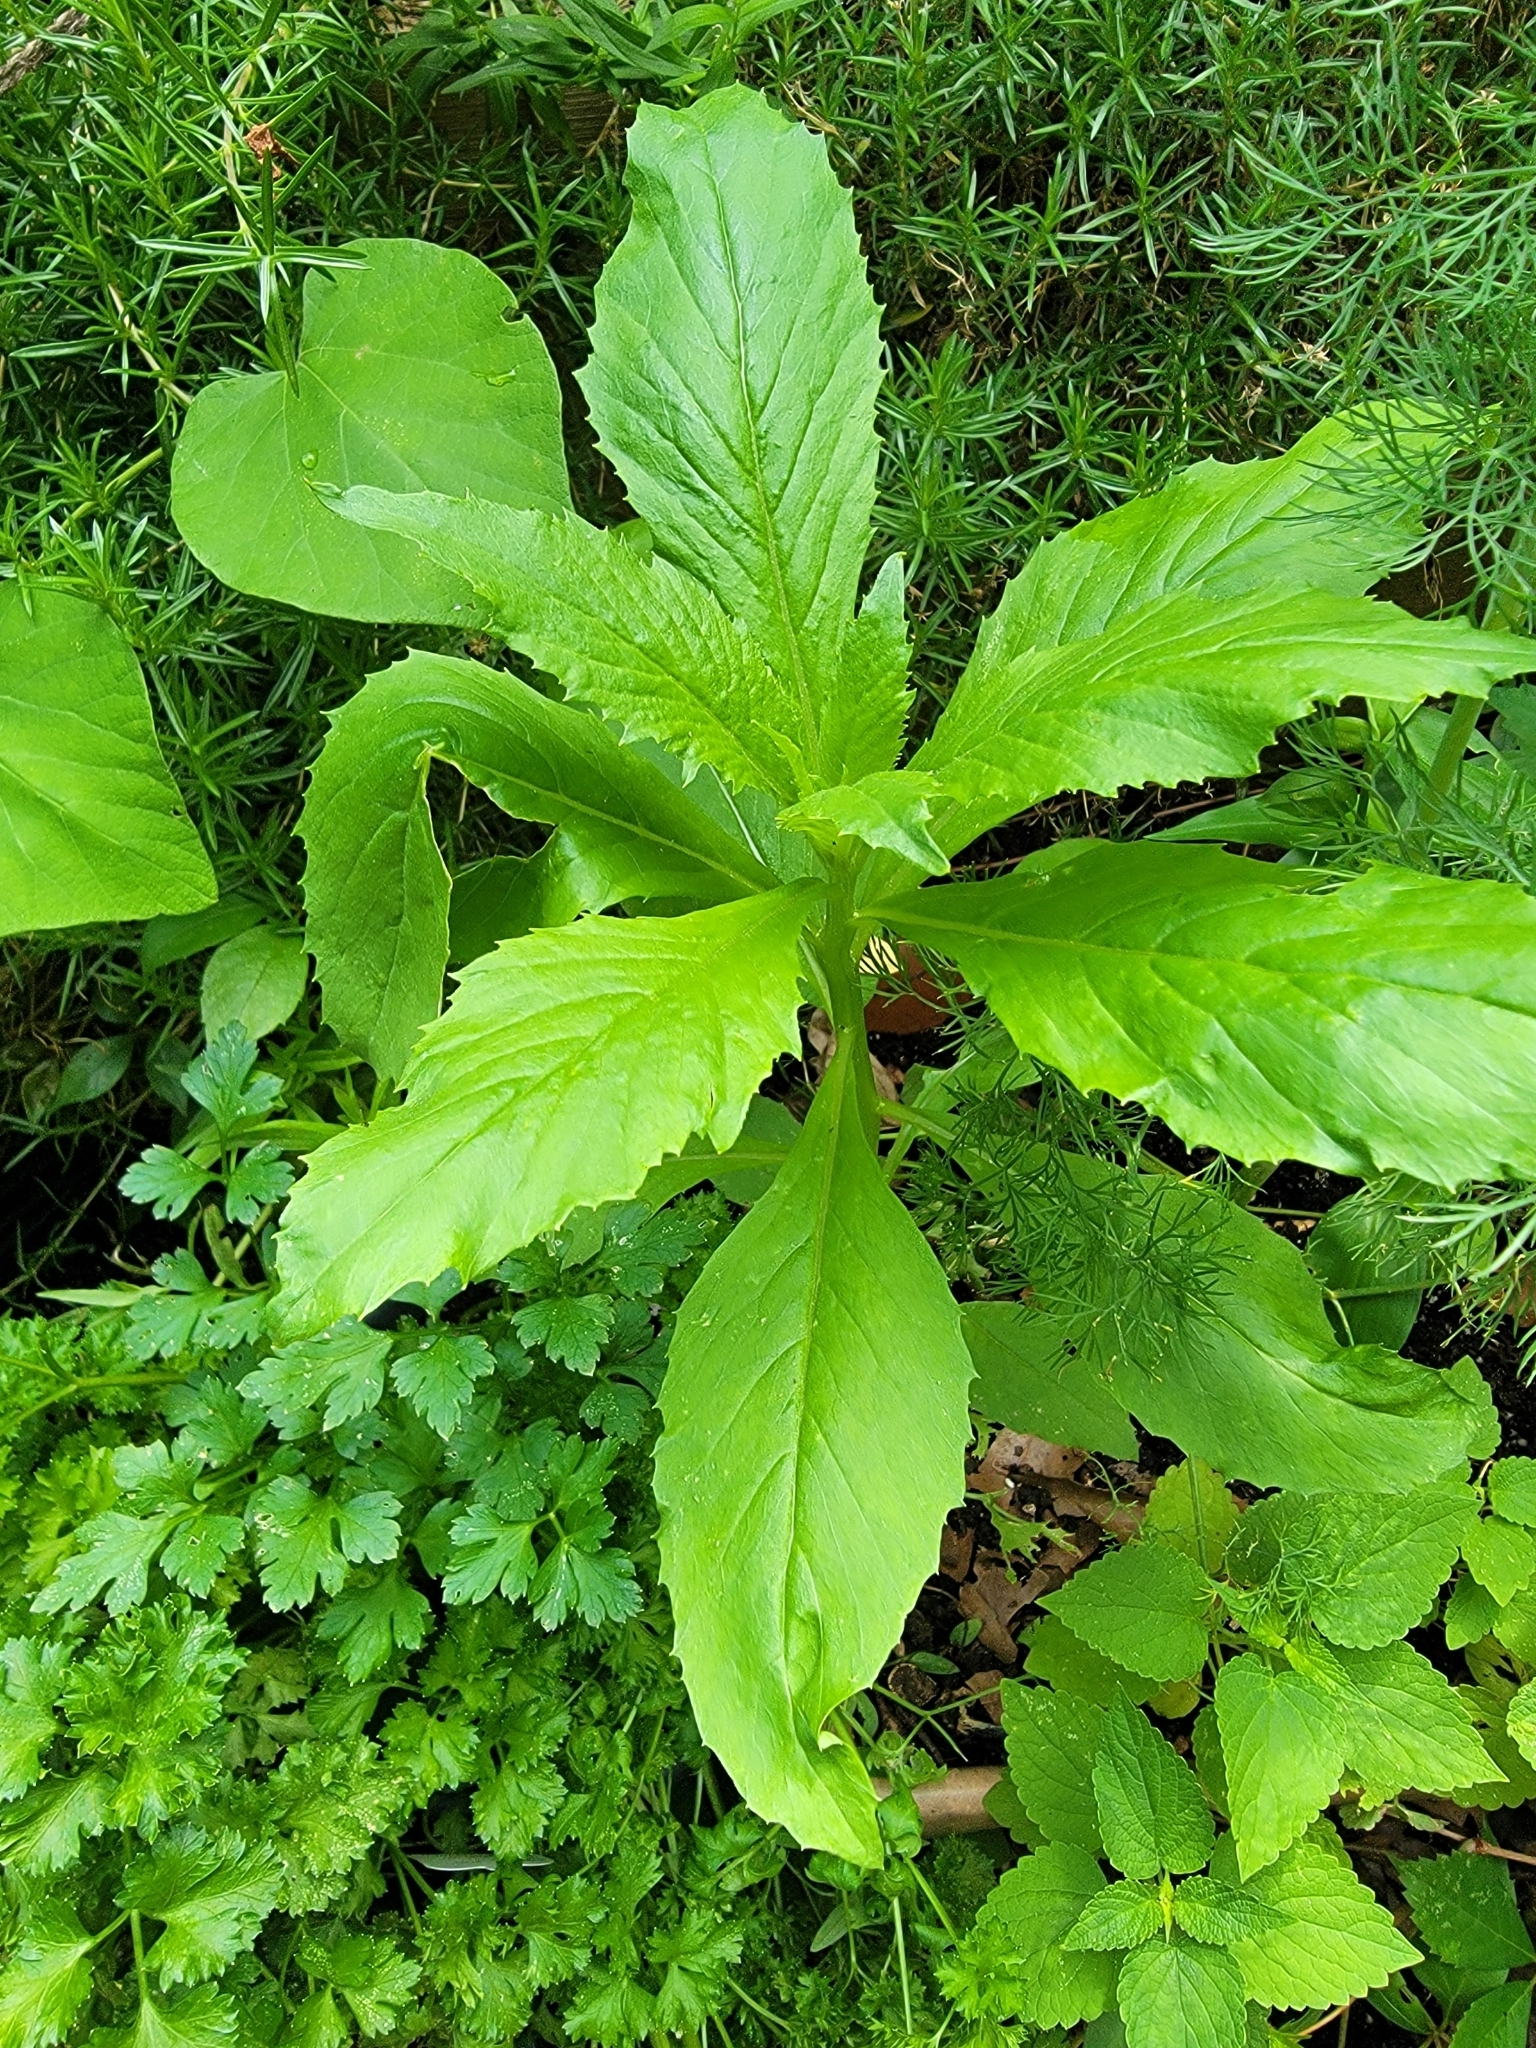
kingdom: Plantae
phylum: Tracheophyta
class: Magnoliopsida
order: Asterales
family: Asteraceae
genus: Erechtites
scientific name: Erechtites hieraciifolius
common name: American burnweed
